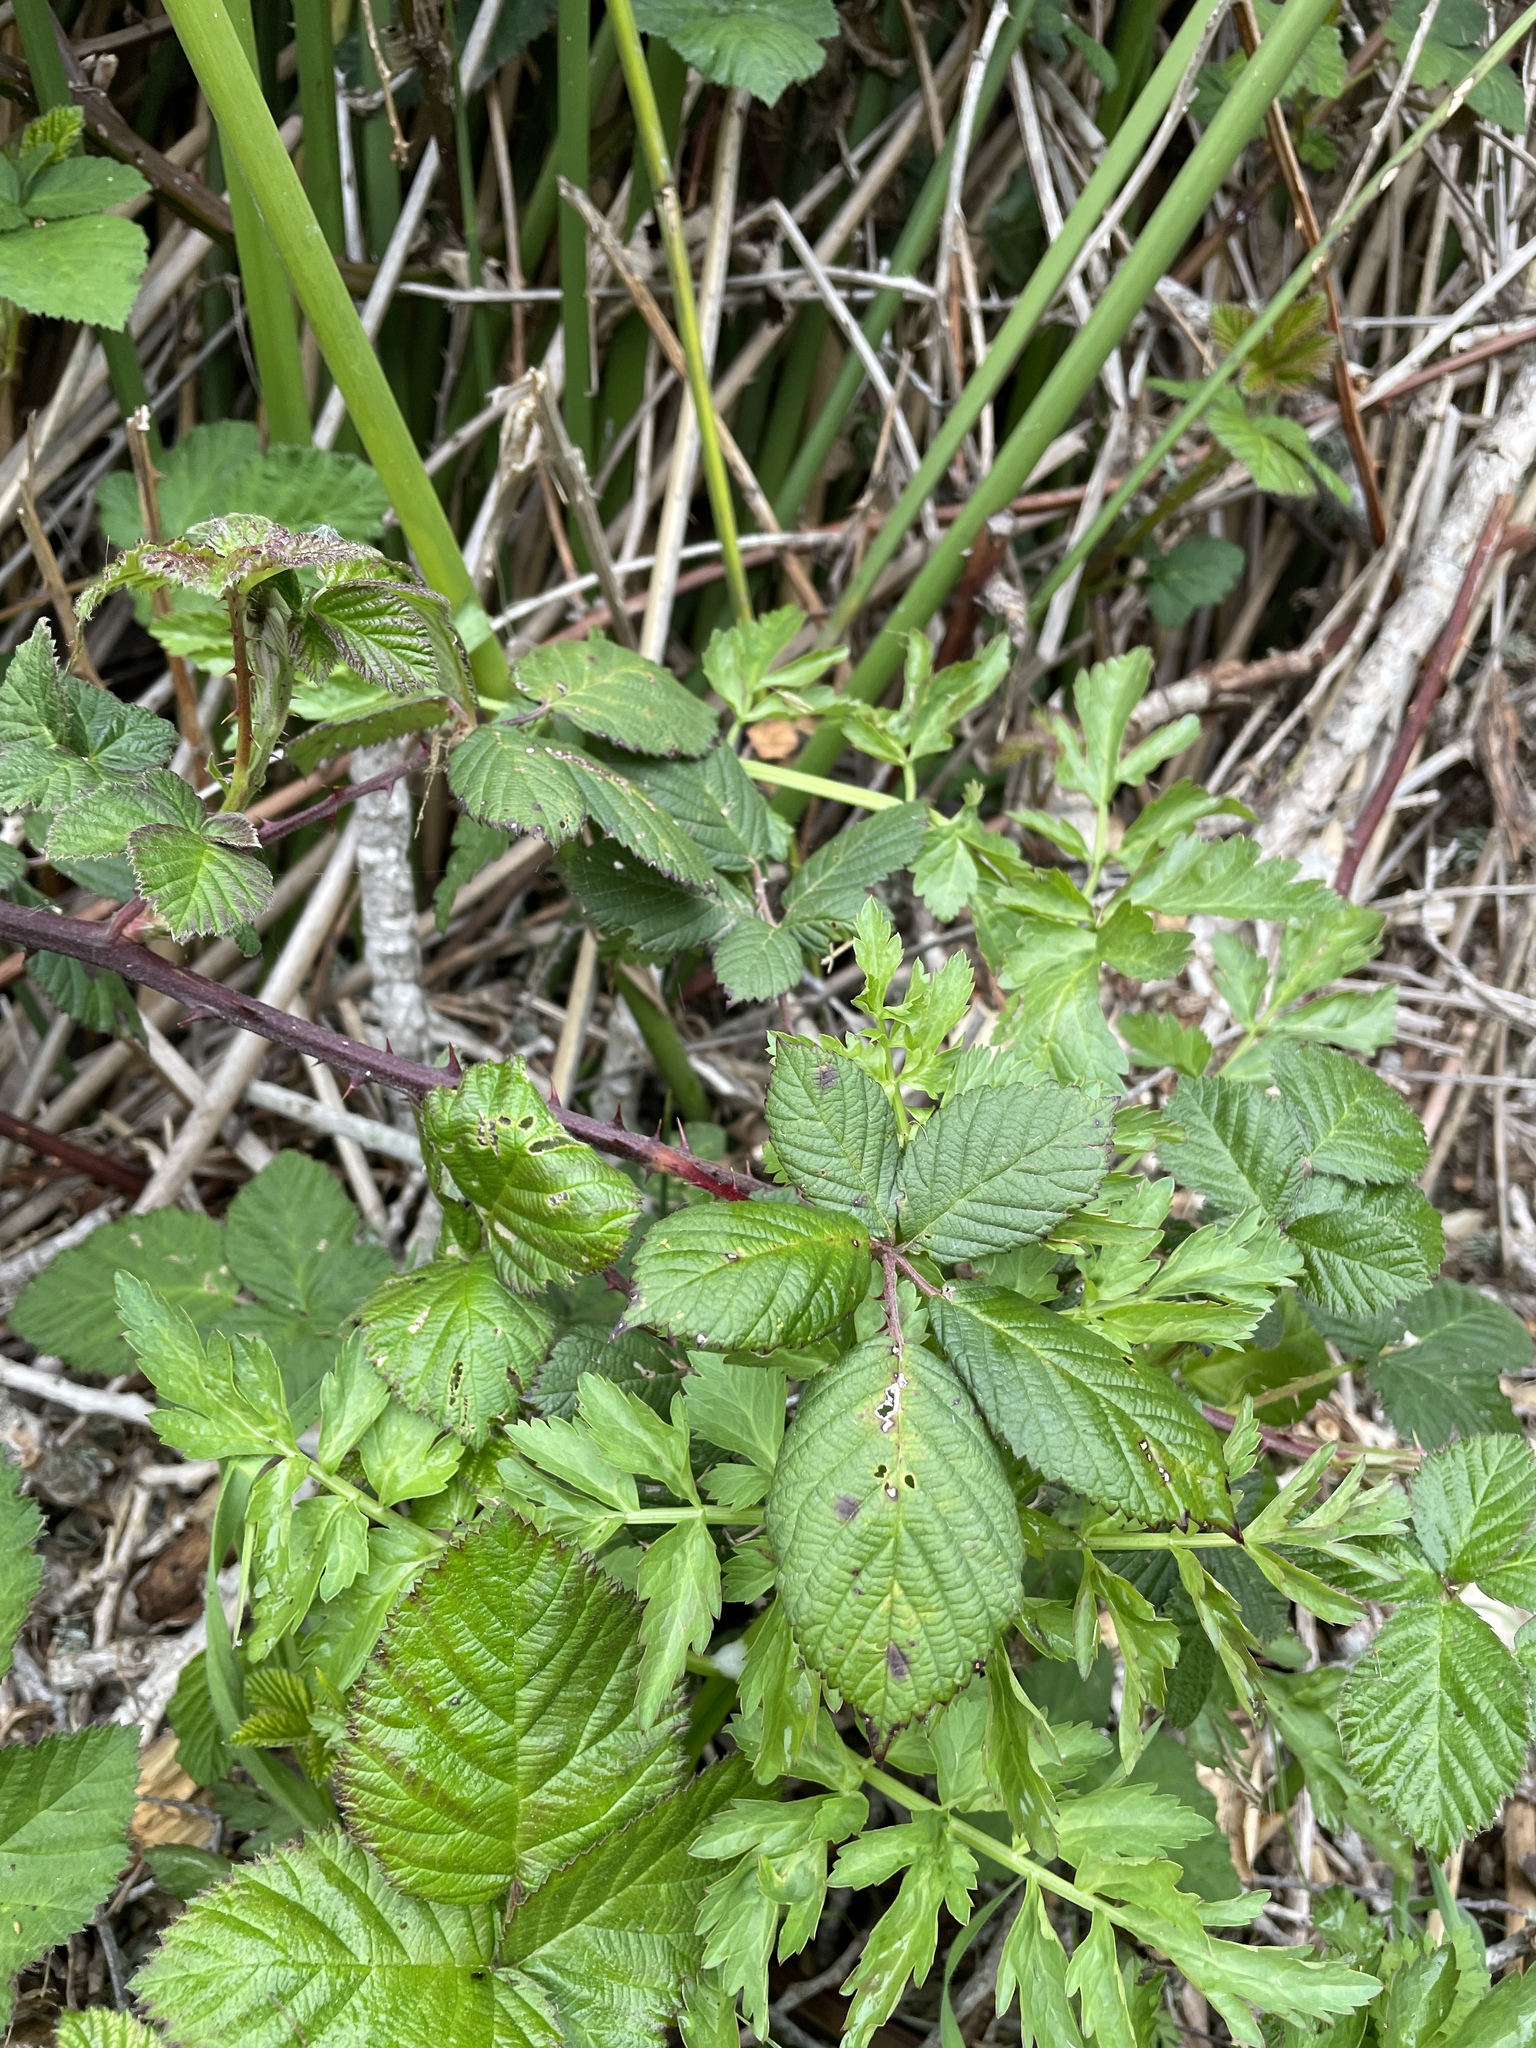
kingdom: Plantae
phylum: Tracheophyta
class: Magnoliopsida
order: Rosales
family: Rosaceae
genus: Rubus
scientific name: Rubus armeniacus
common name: Himalayan blackberry
